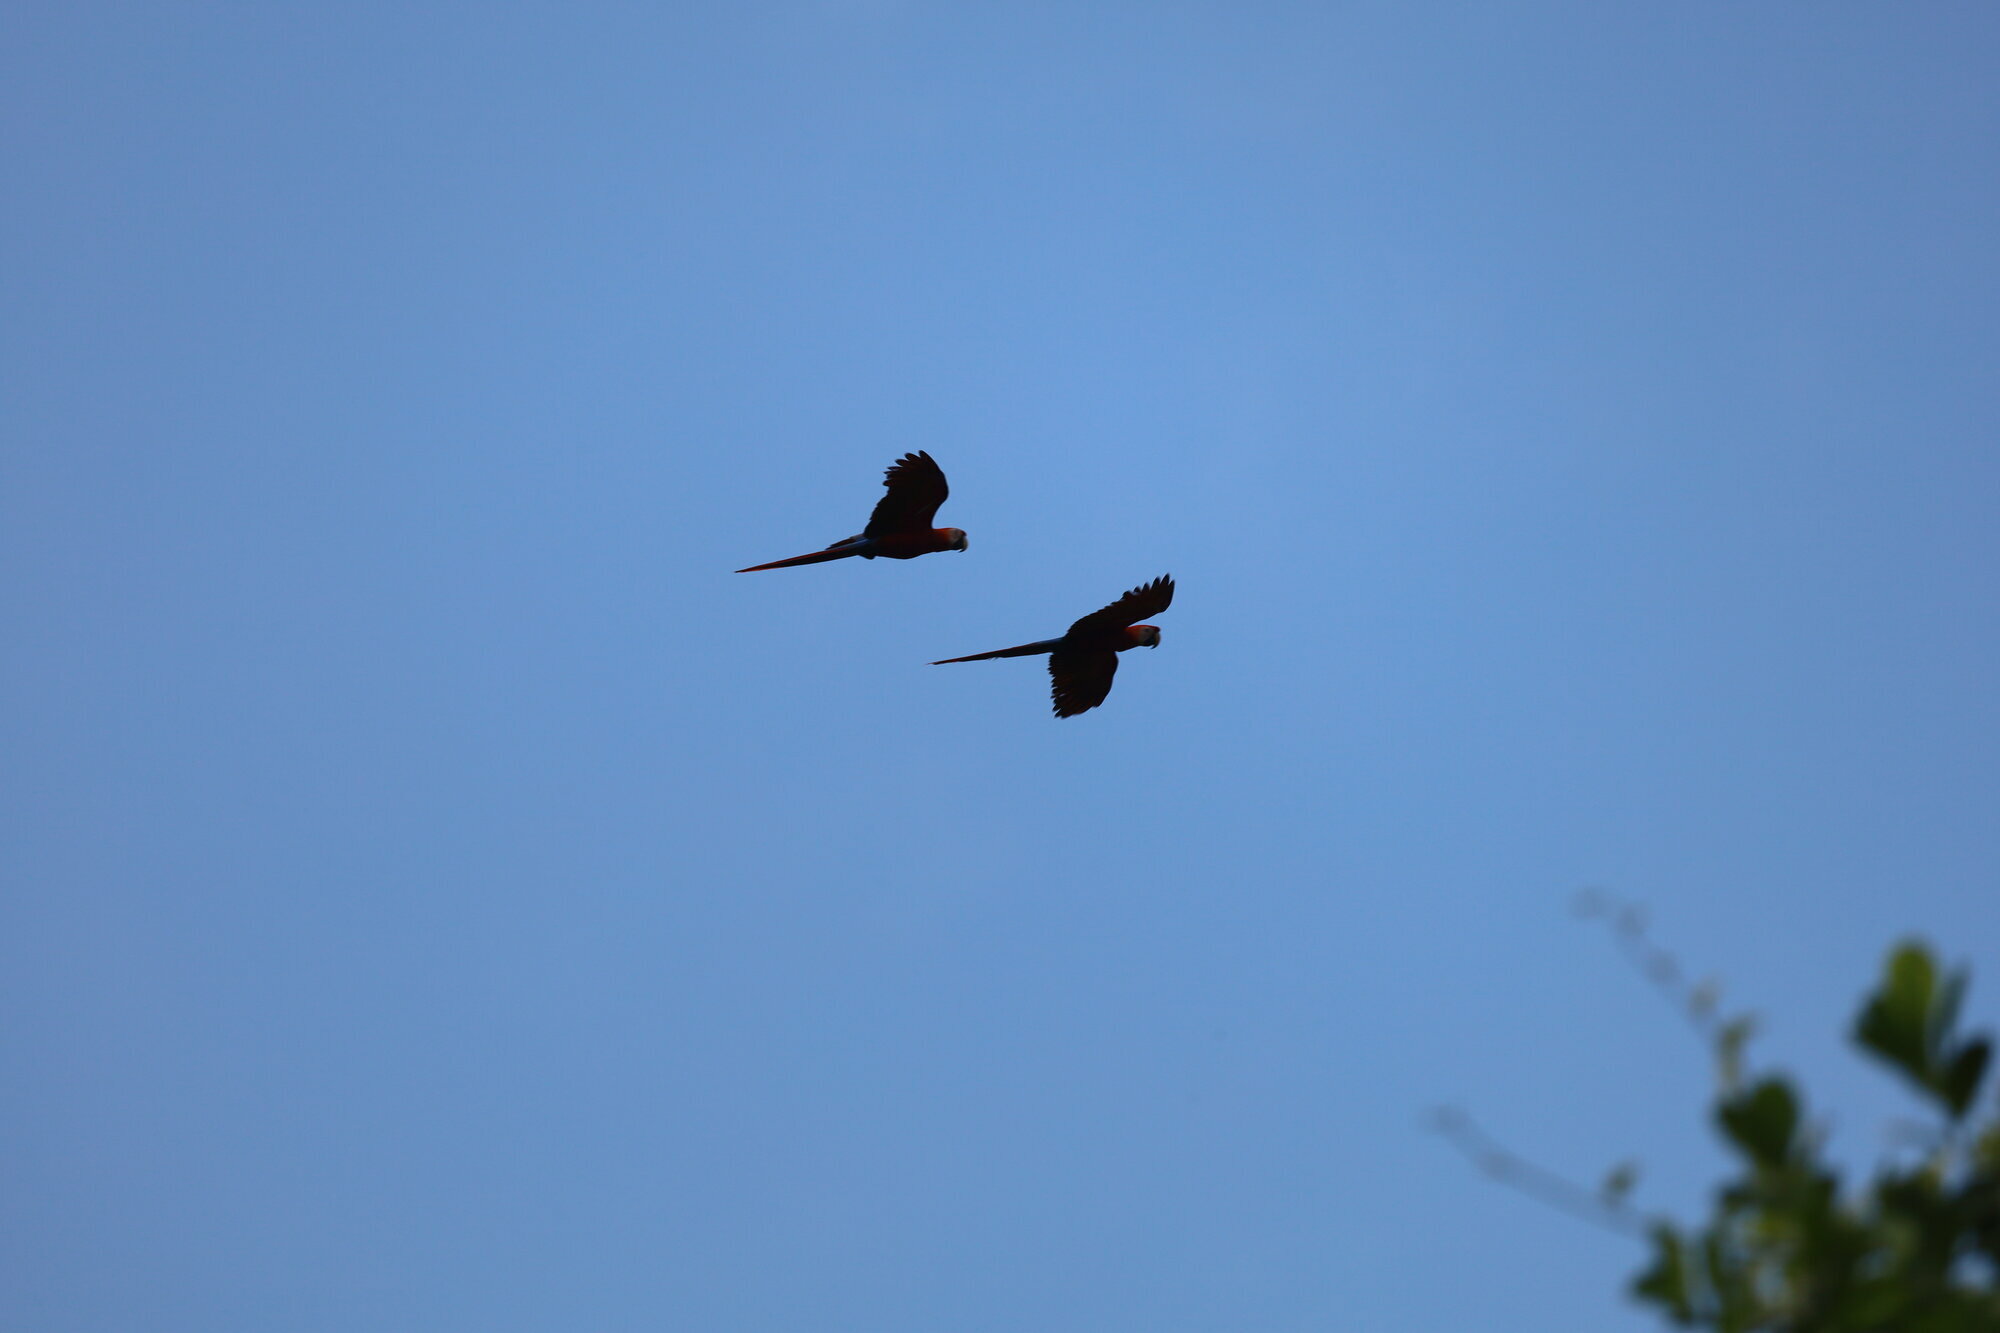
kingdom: Animalia
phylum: Chordata
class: Aves
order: Psittaciformes
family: Psittacidae
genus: Ara
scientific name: Ara macao
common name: Scarlet macaw
